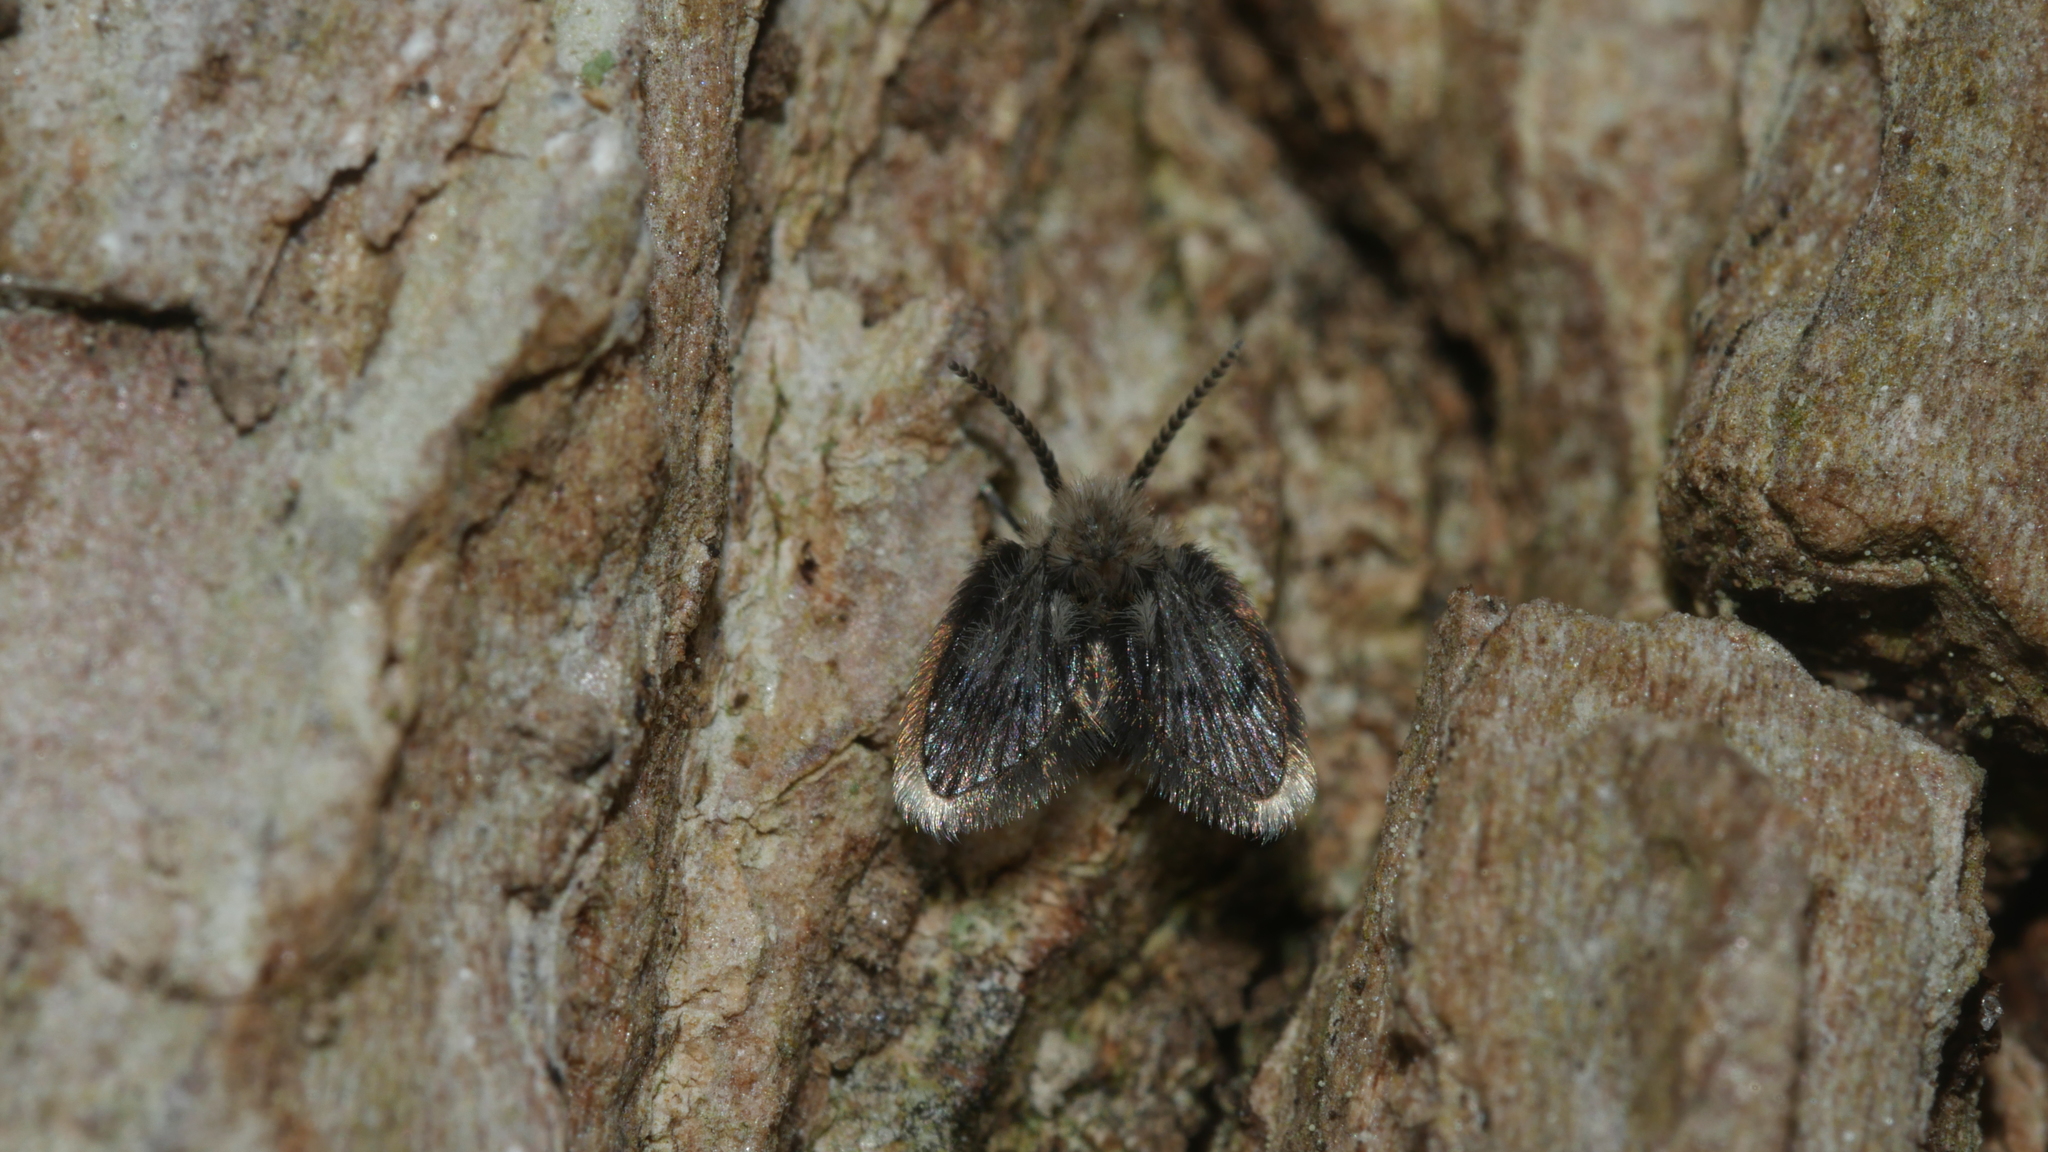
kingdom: Animalia
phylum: Arthropoda
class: Insecta
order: Diptera
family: Psychodidae
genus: Lepiseodina
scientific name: Lepiseodina
